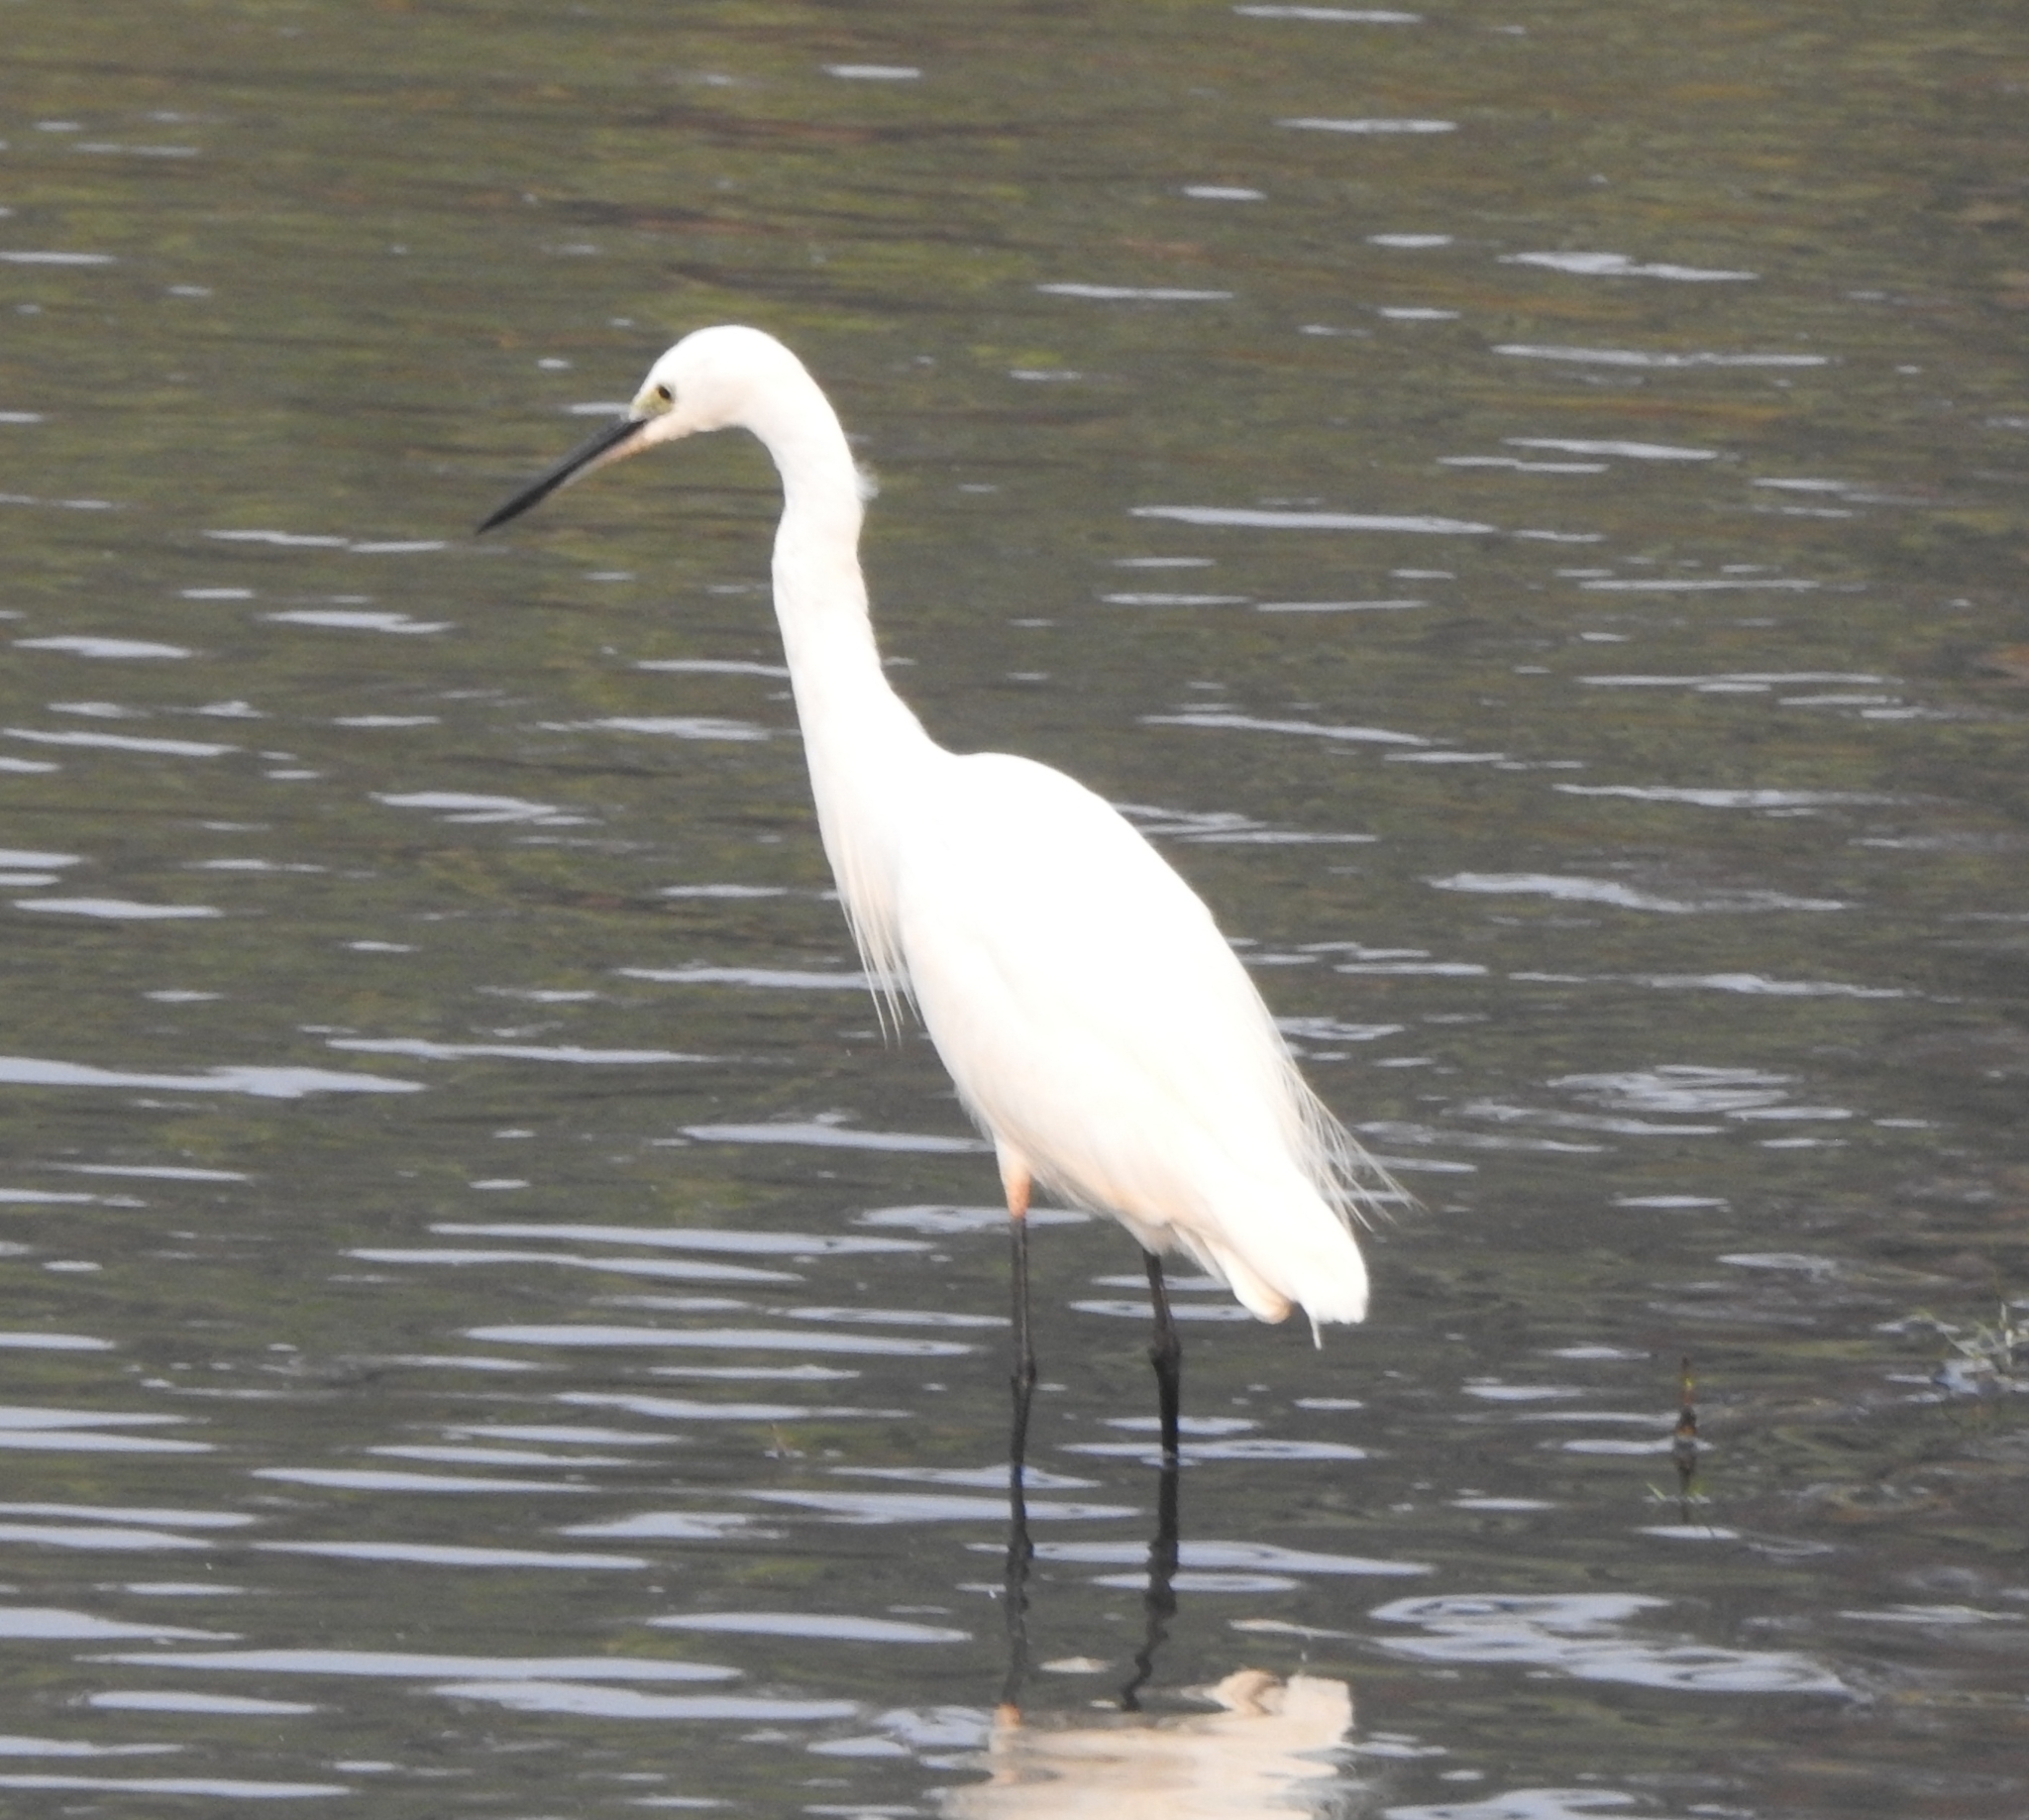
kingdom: Animalia
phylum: Chordata
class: Aves
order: Pelecaniformes
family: Ardeidae
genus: Egretta
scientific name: Egretta garzetta
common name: Little egret
